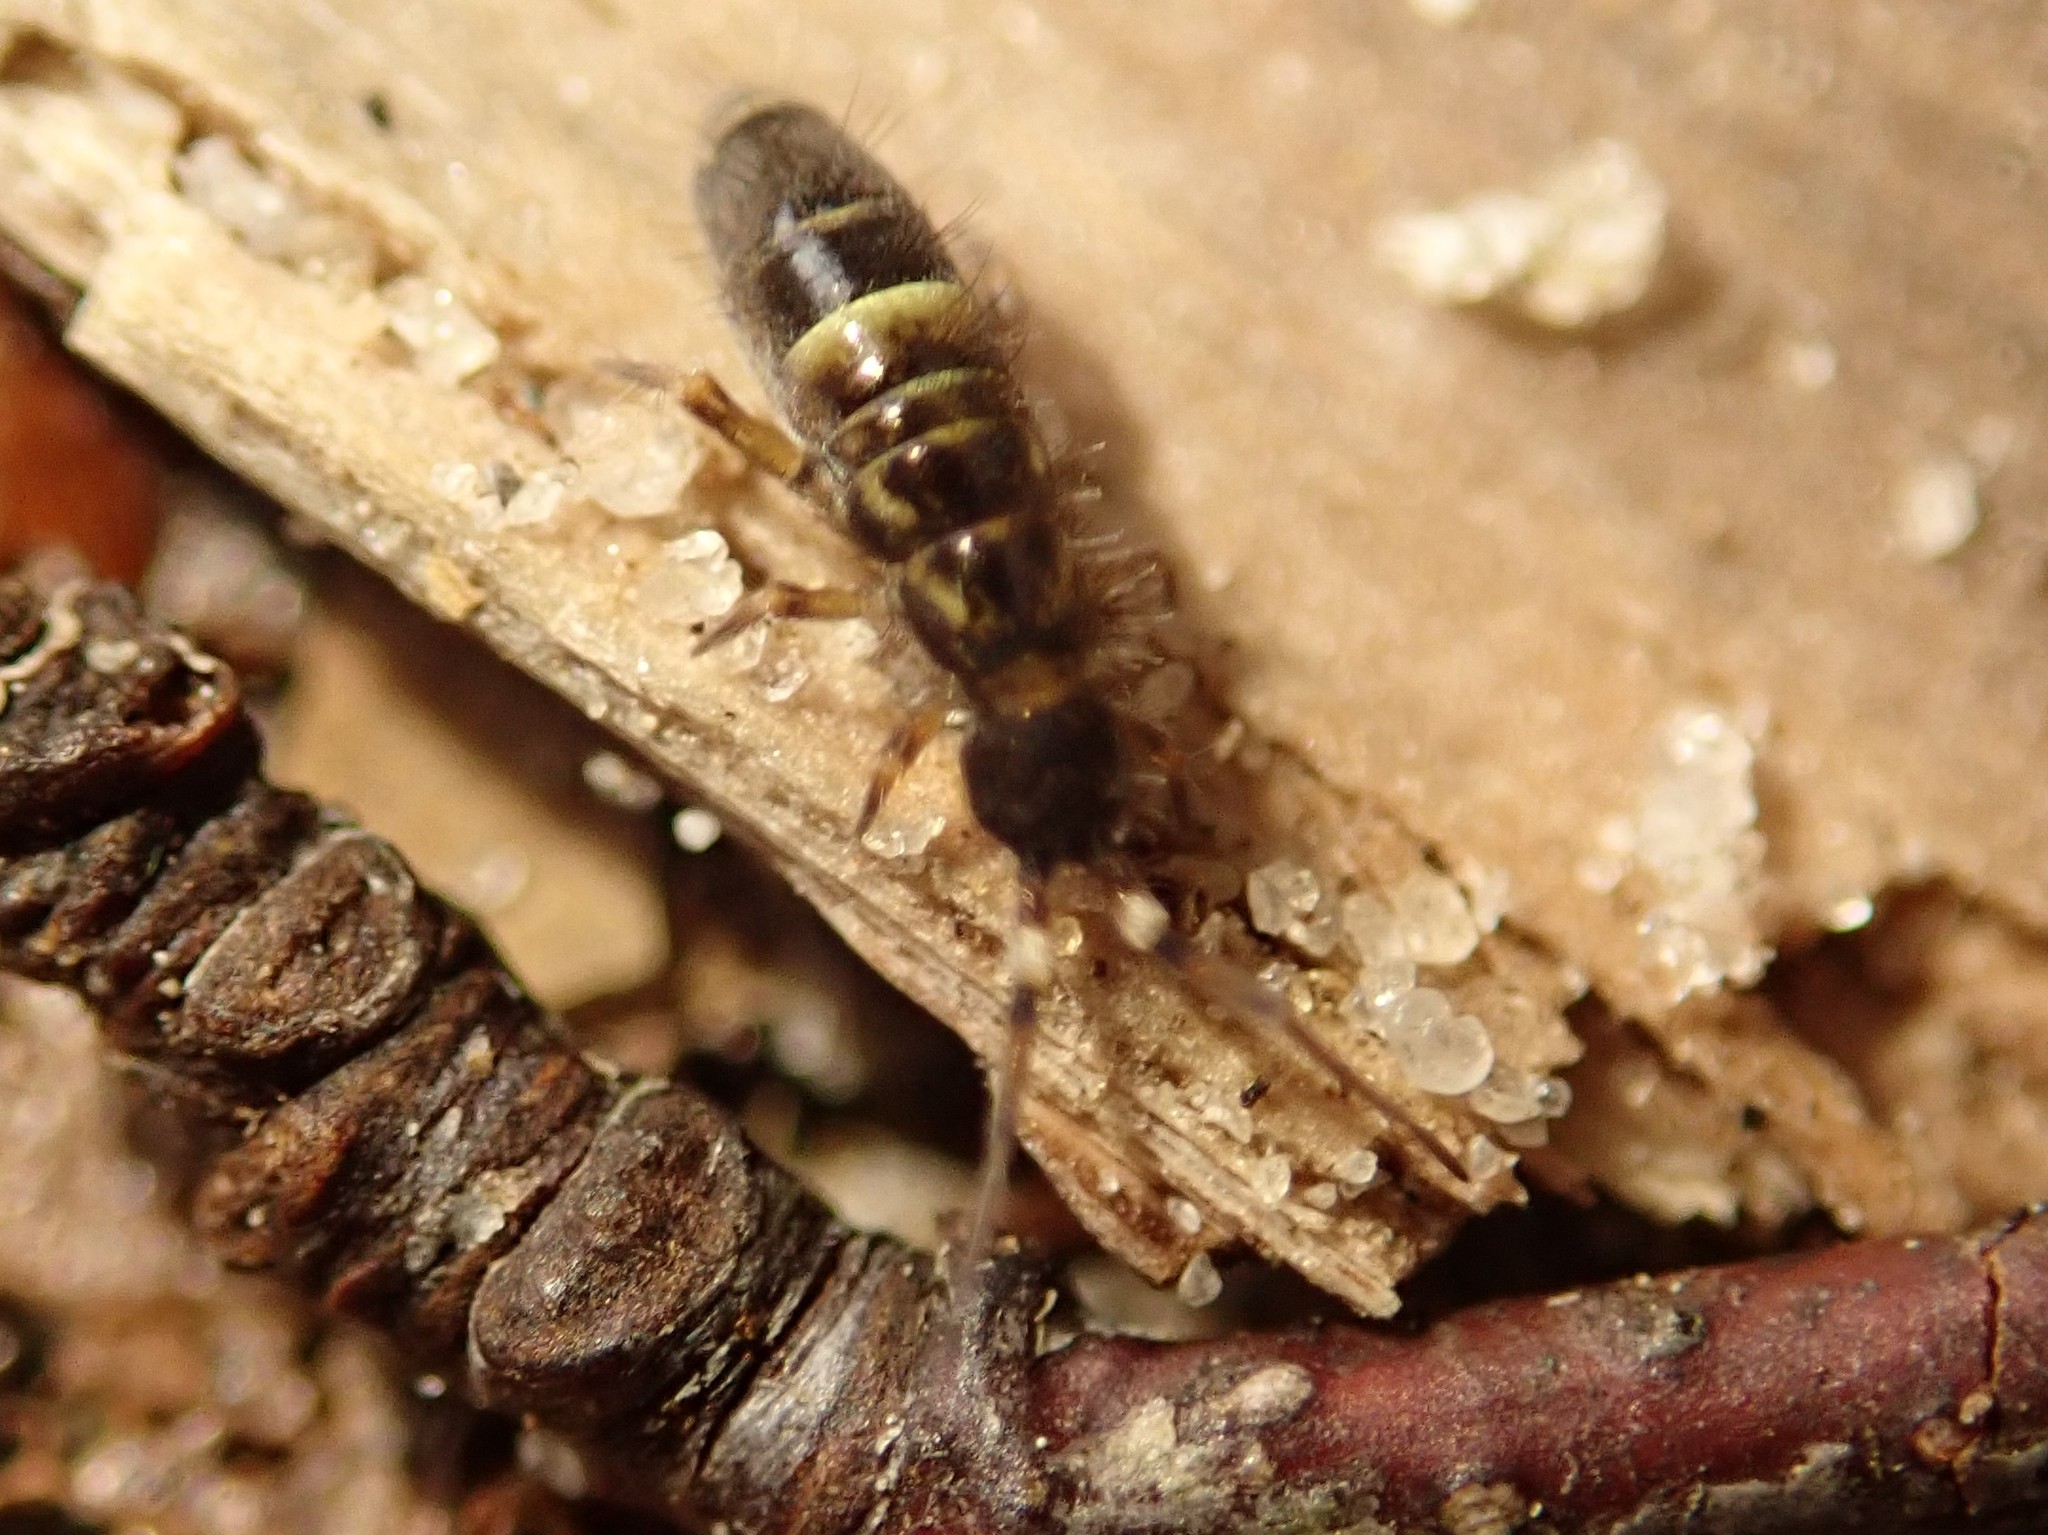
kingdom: Animalia
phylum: Arthropoda
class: Collembola
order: Entomobryomorpha
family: Orchesellidae
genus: Orchesella
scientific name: Orchesella cincta
